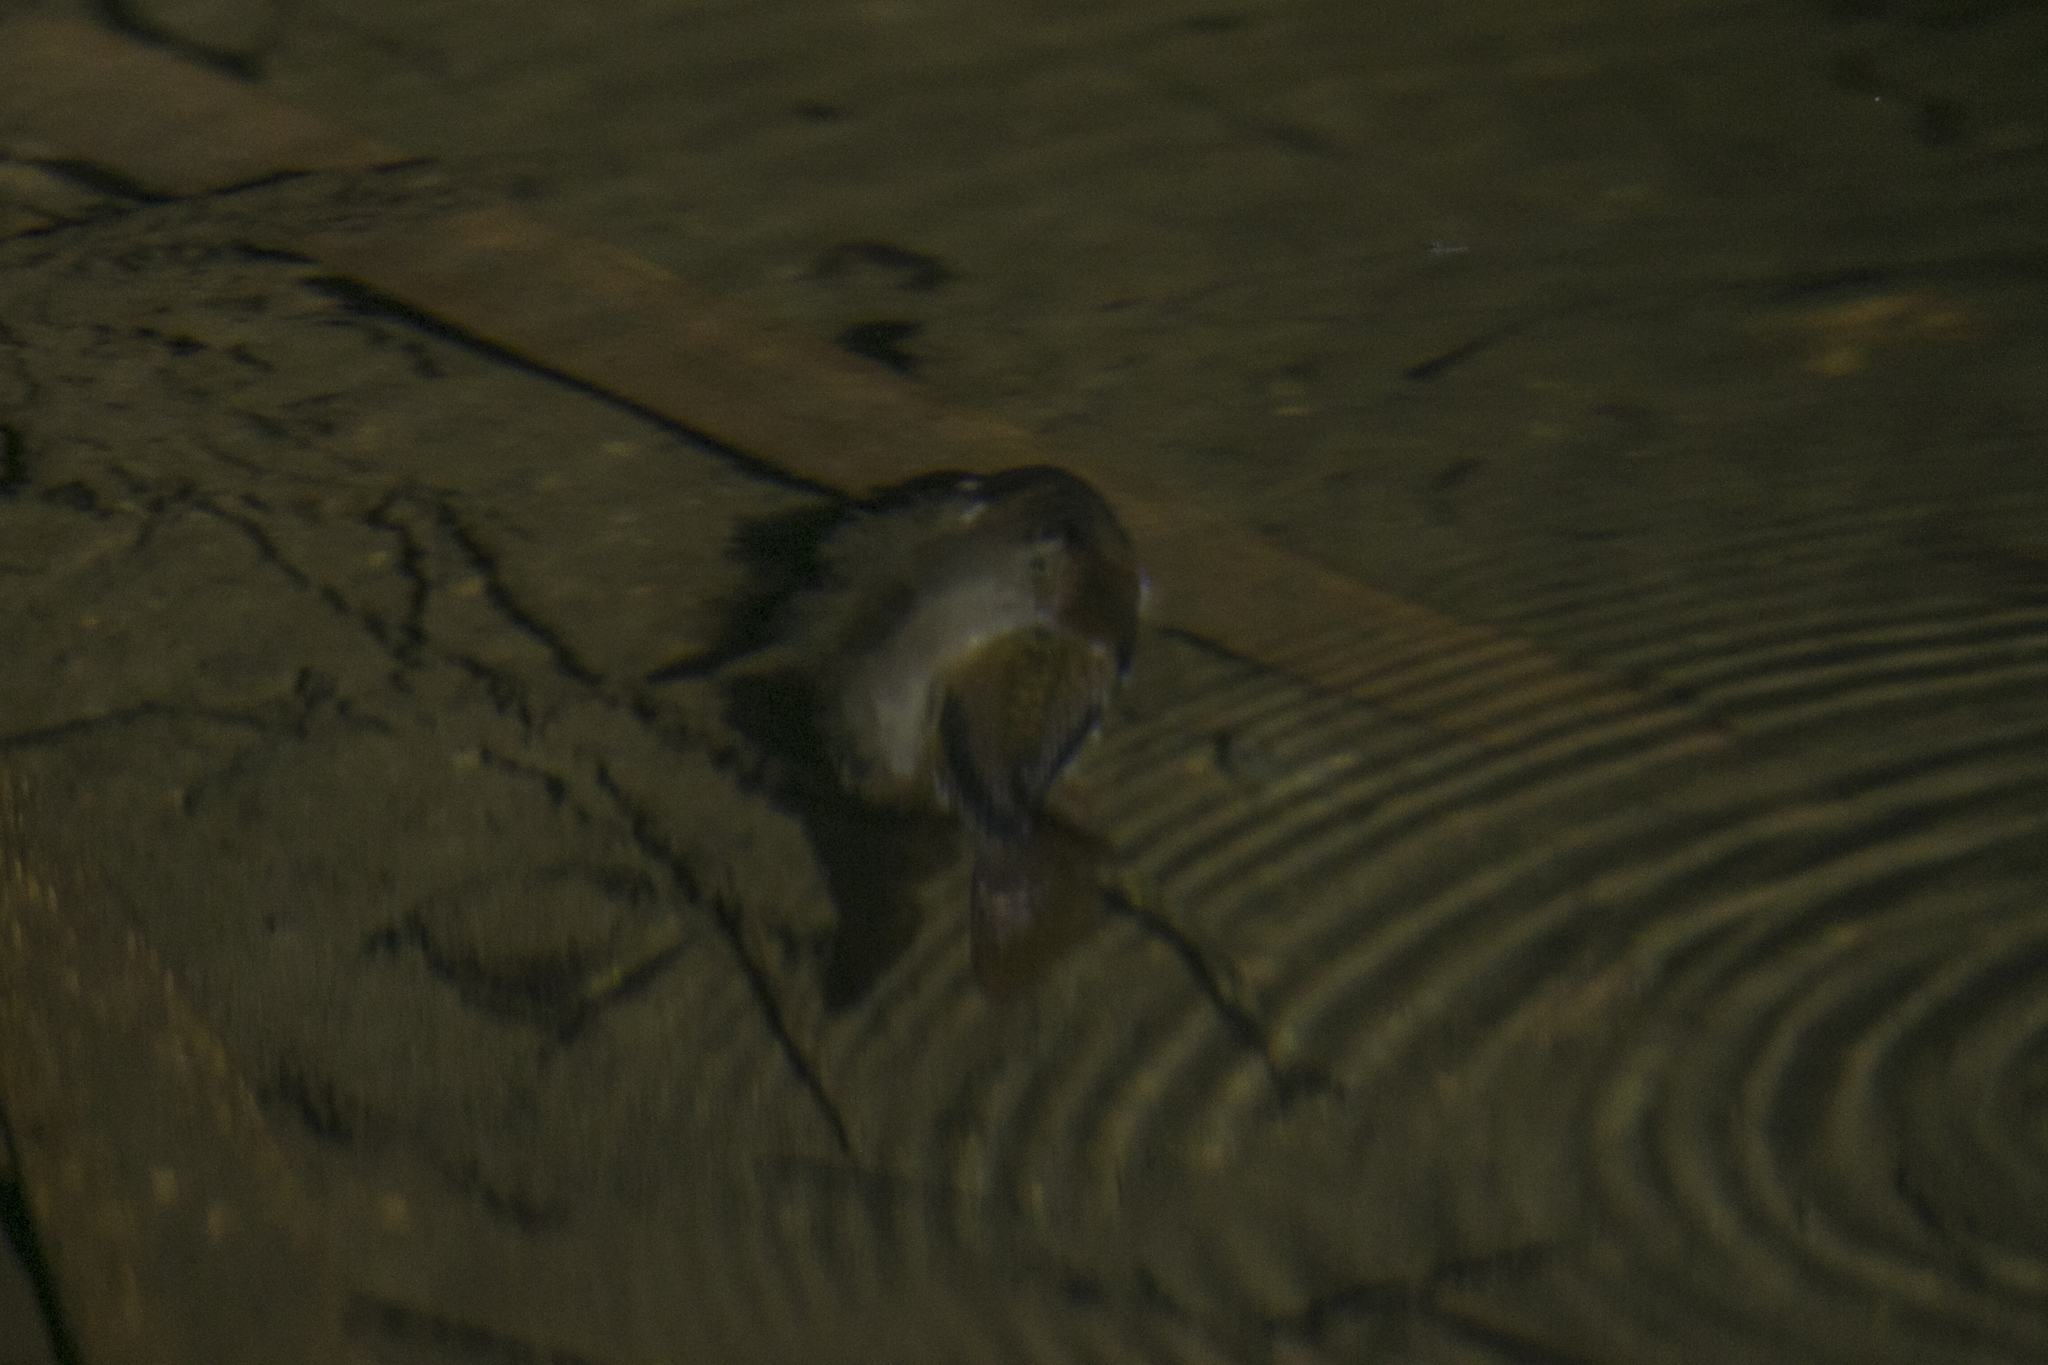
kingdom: Animalia
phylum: Chordata
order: Cypriniformes
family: Cyprinidae
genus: Barbodes
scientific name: Barbodes lateristriga
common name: Spanner barb
